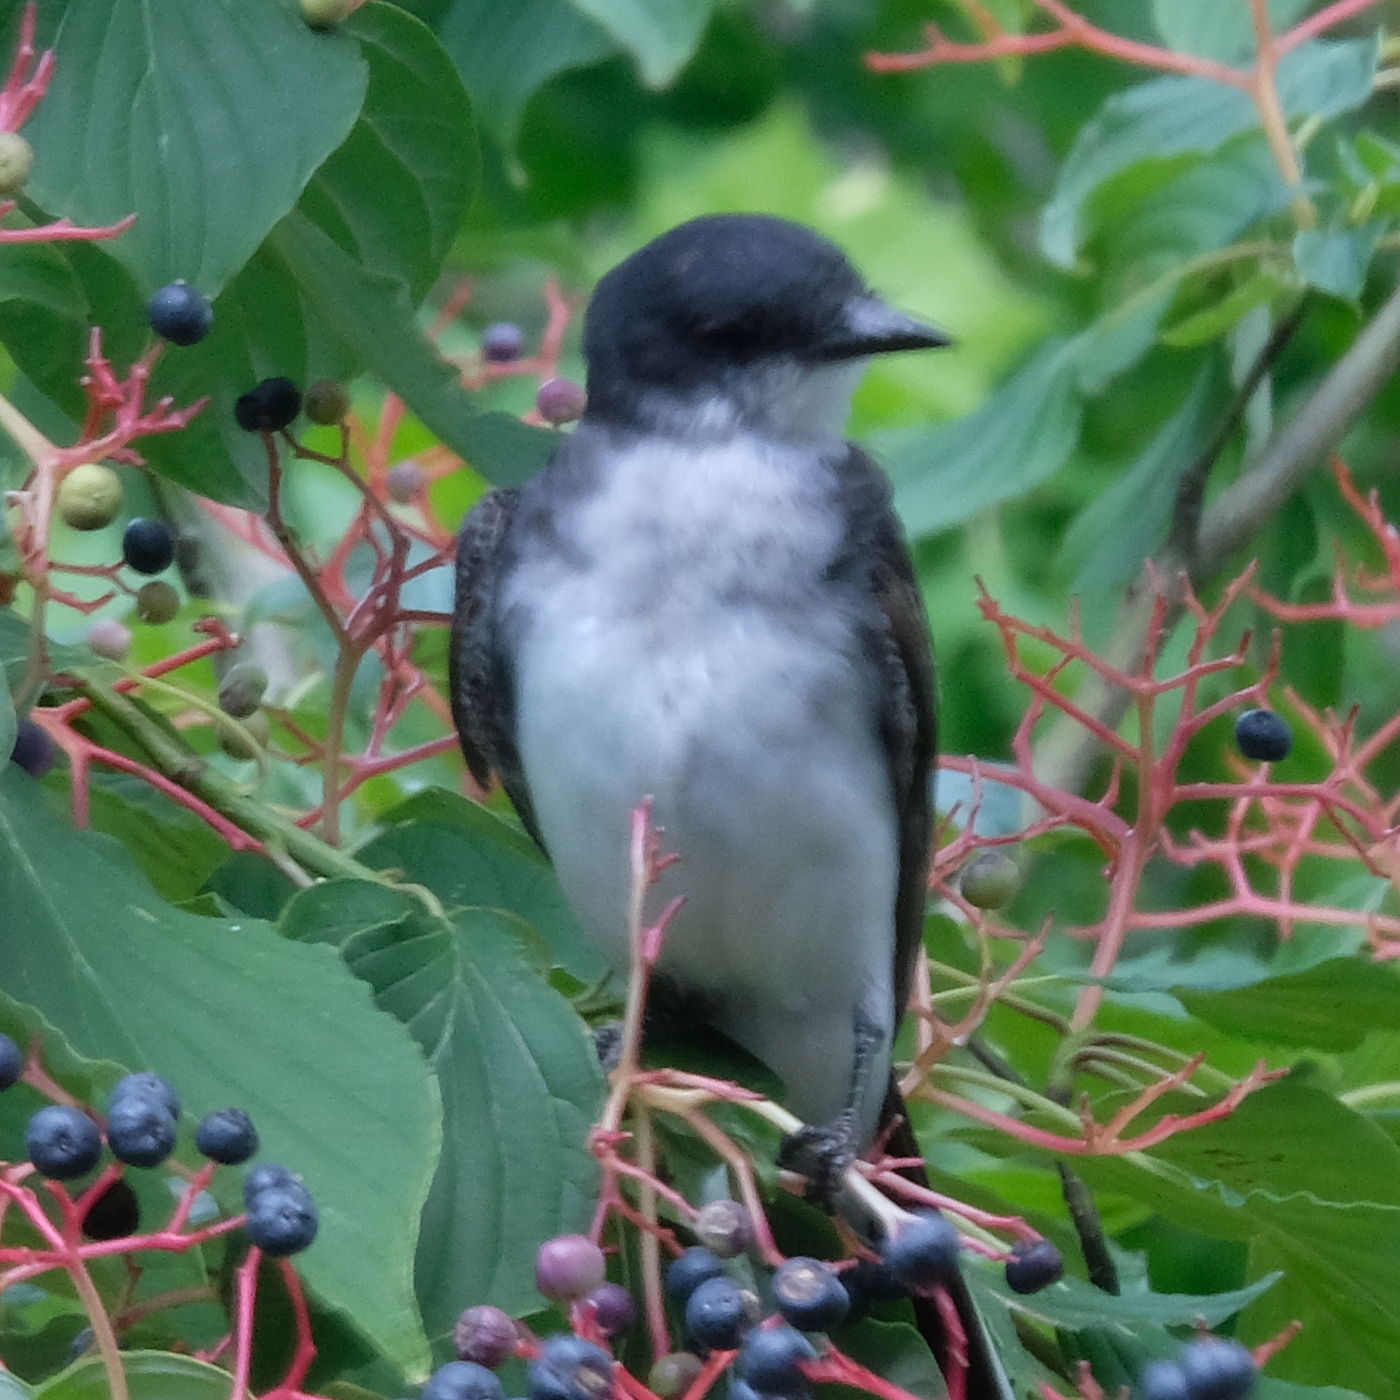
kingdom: Animalia
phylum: Chordata
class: Aves
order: Passeriformes
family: Tyrannidae
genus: Tyrannus
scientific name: Tyrannus tyrannus
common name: Eastern kingbird
